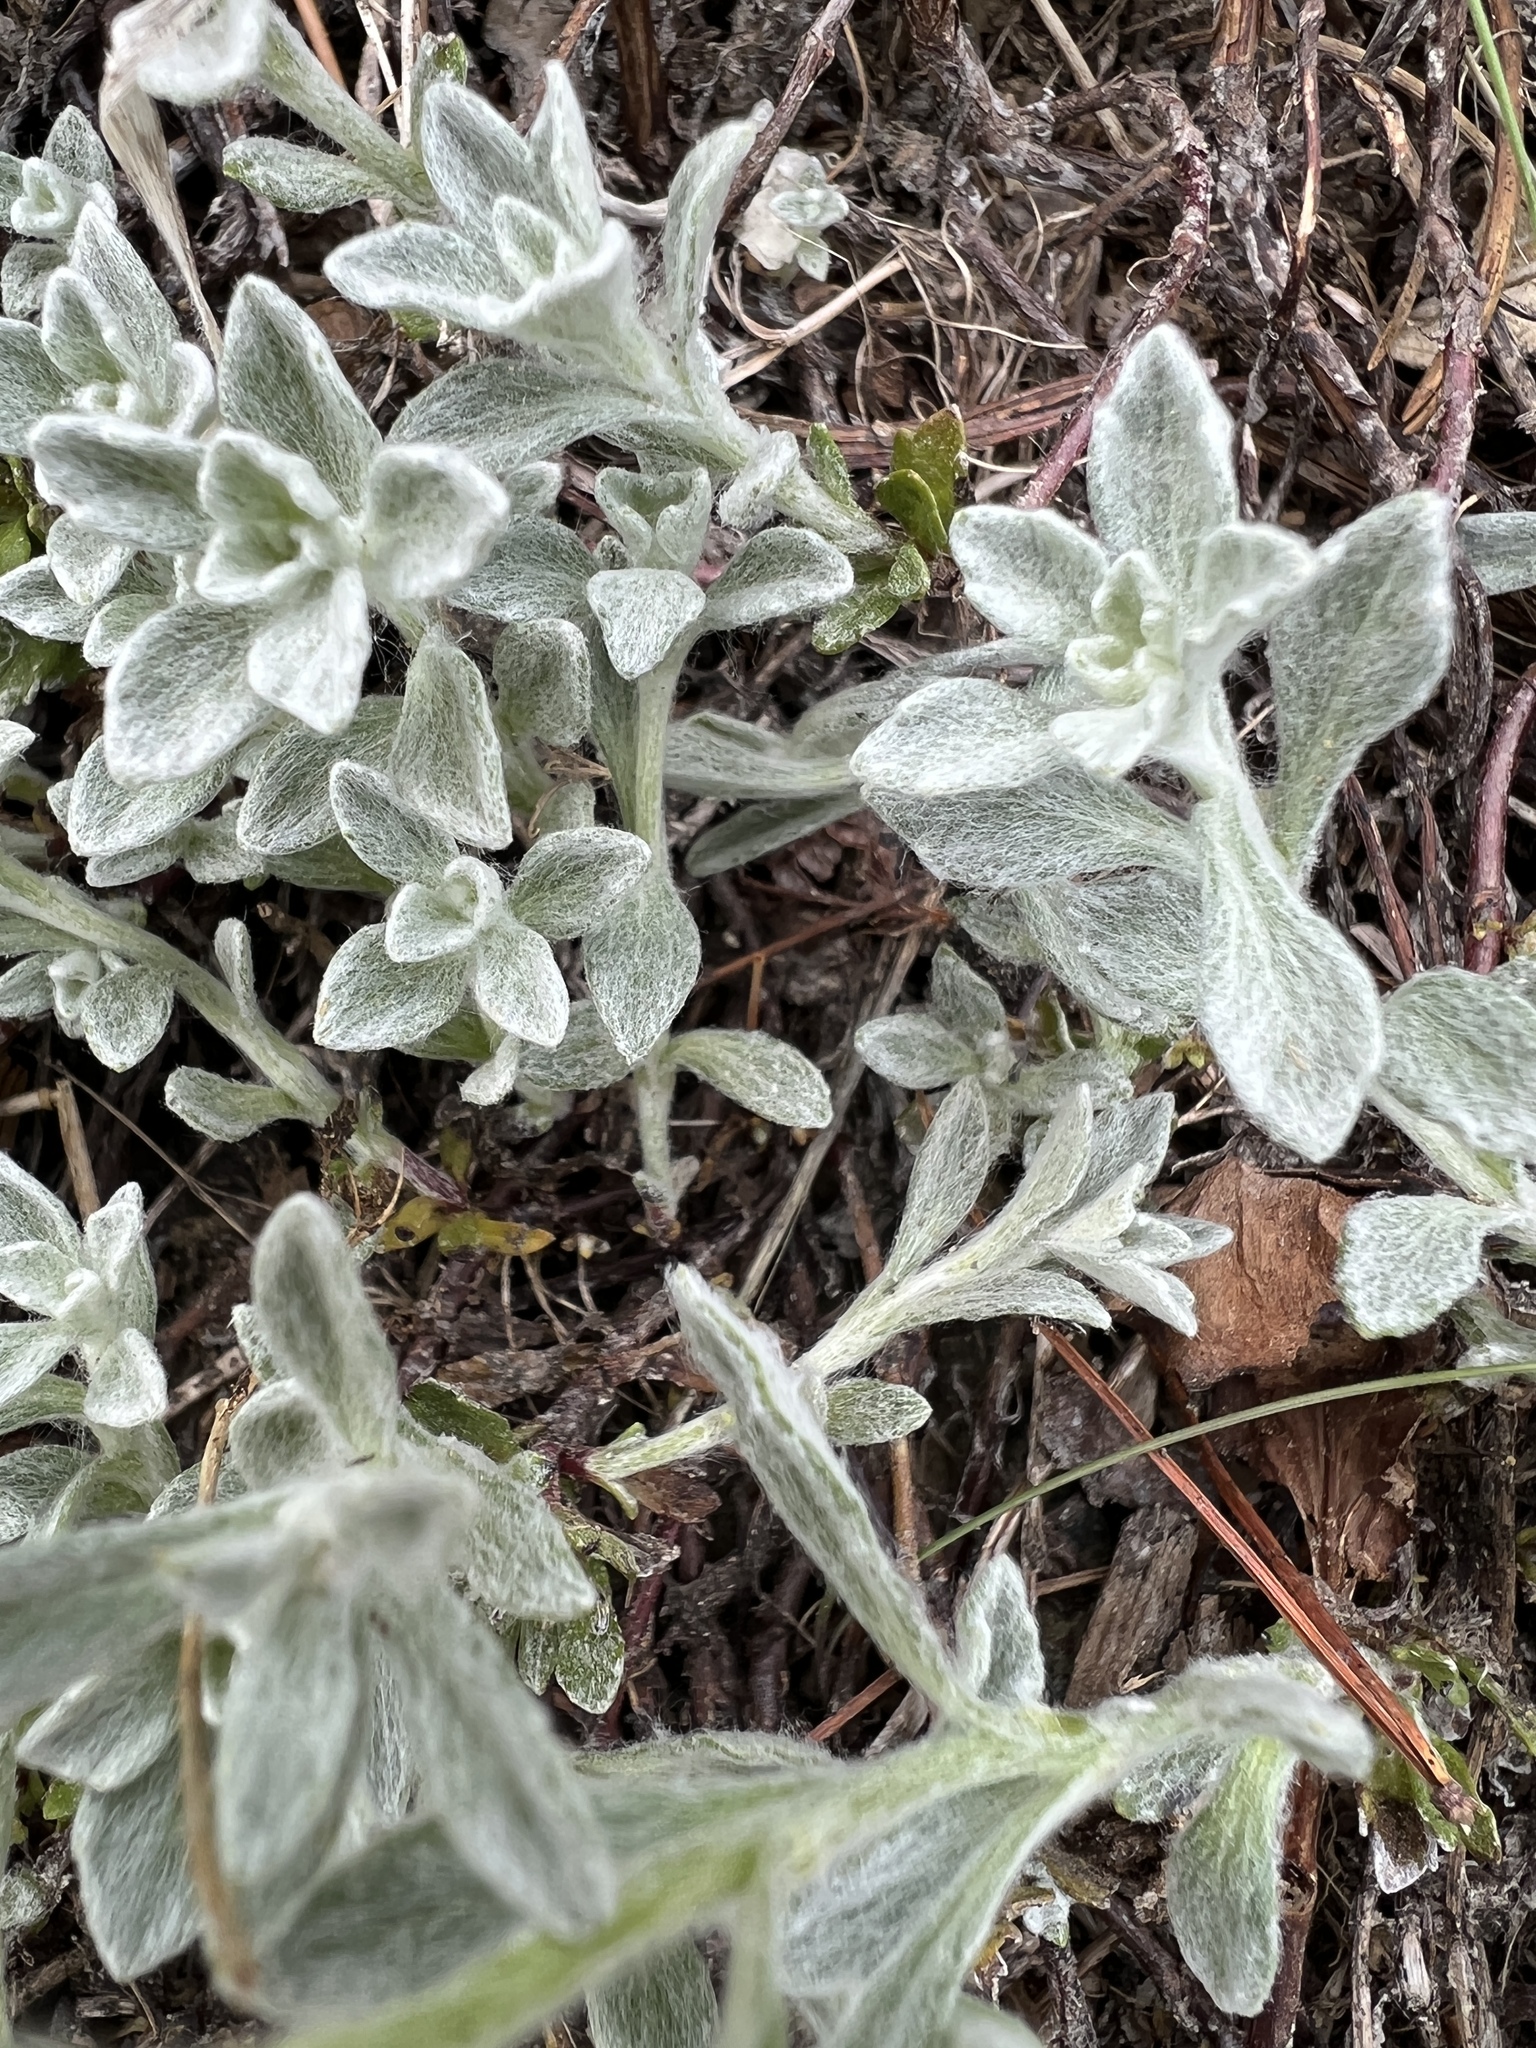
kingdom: Plantae
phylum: Tracheophyta
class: Magnoliopsida
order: Asterales
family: Asteraceae
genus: Eriophyllum
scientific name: Eriophyllum lanatum
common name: Common woolly-sunflower
